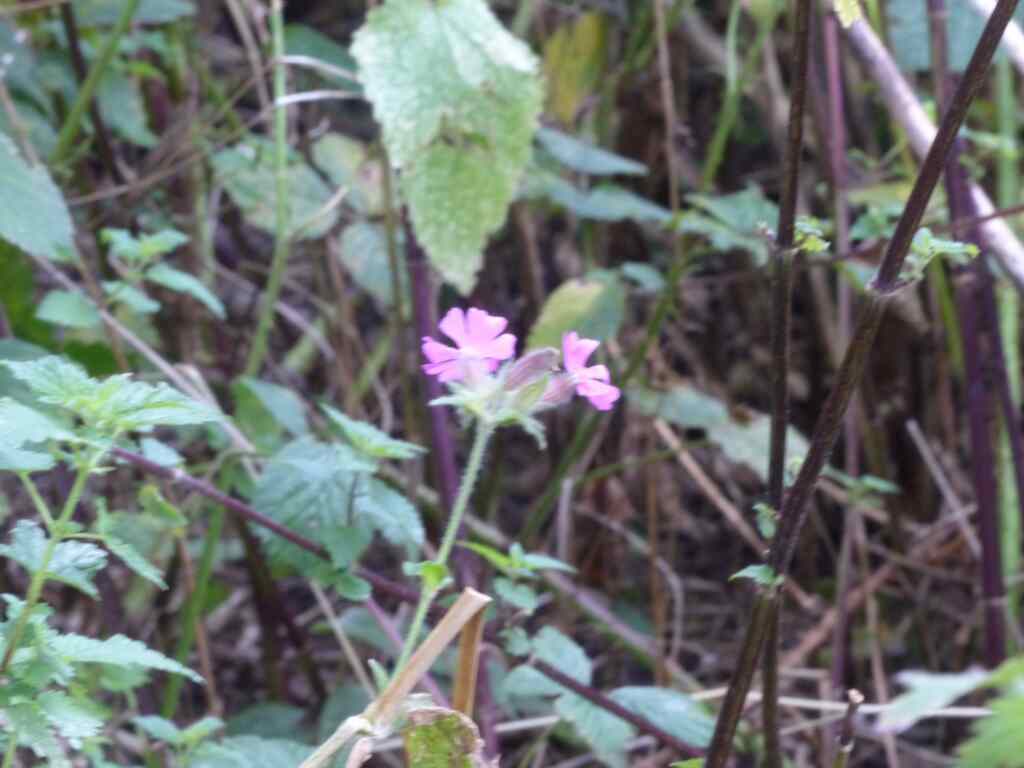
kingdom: Plantae
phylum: Tracheophyta
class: Magnoliopsida
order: Caryophyllales
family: Caryophyllaceae
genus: Silene
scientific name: Silene dioica
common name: Red campion
